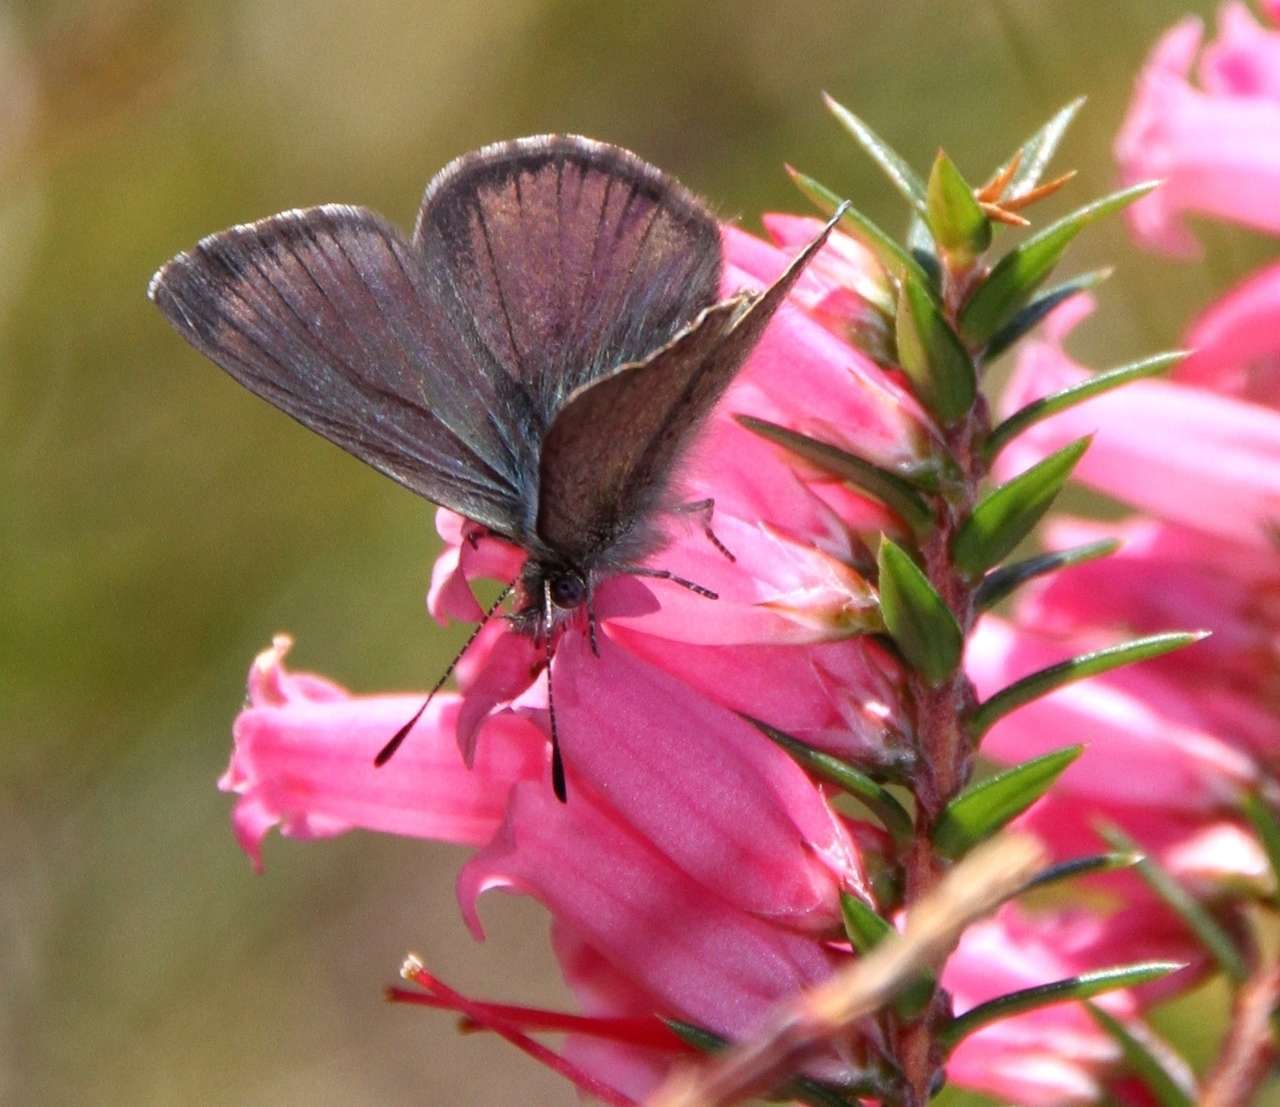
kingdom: Animalia
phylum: Arthropoda
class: Insecta
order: Lepidoptera
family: Lycaenidae
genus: Candalides
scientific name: Candalides
